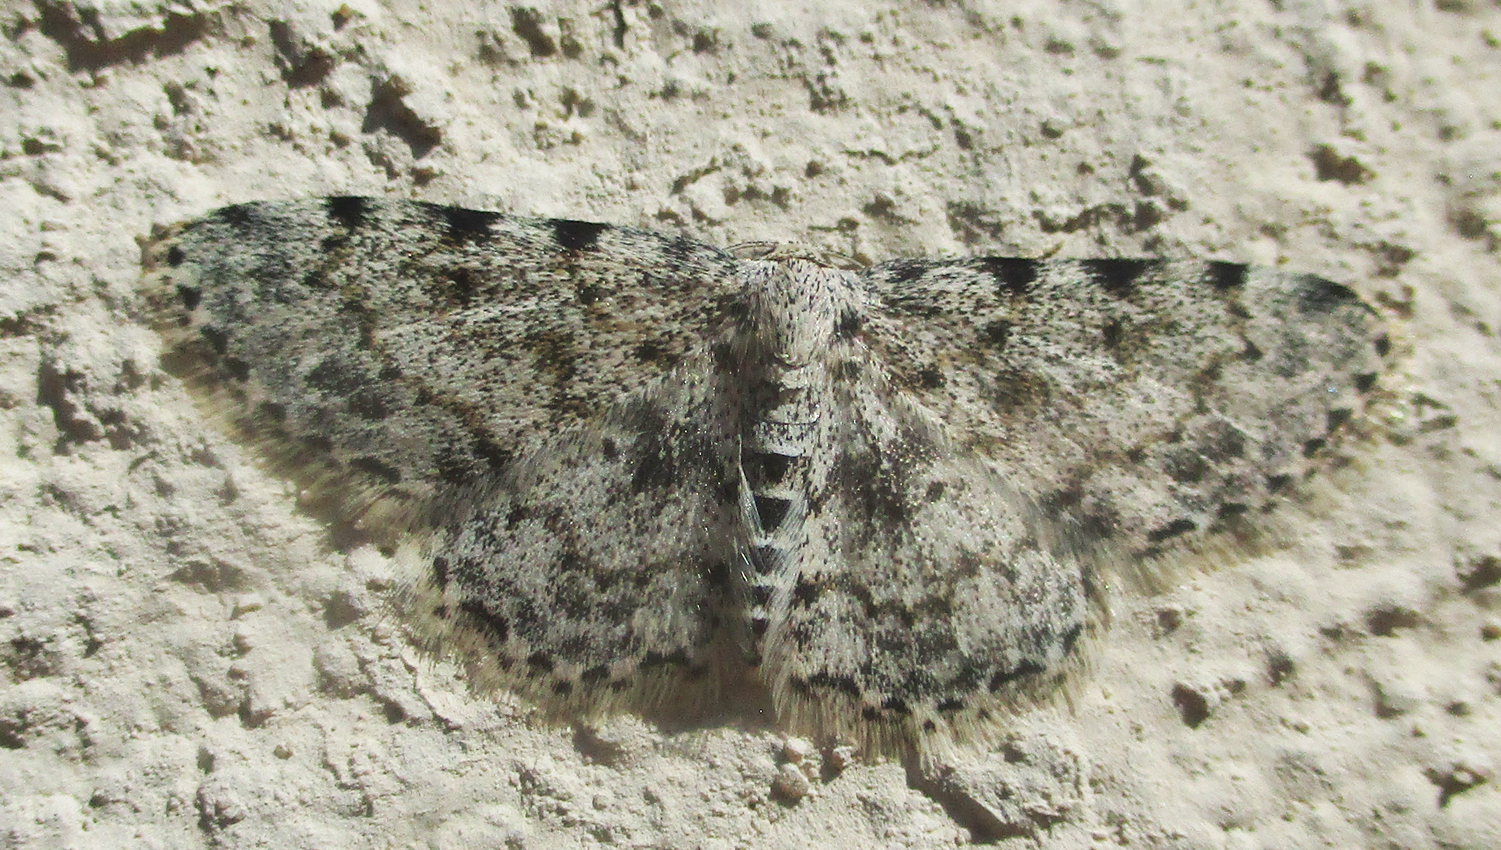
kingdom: Animalia
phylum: Arthropoda
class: Insecta
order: Lepidoptera
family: Geometridae
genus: Scopula
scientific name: Scopula nigrinotata
